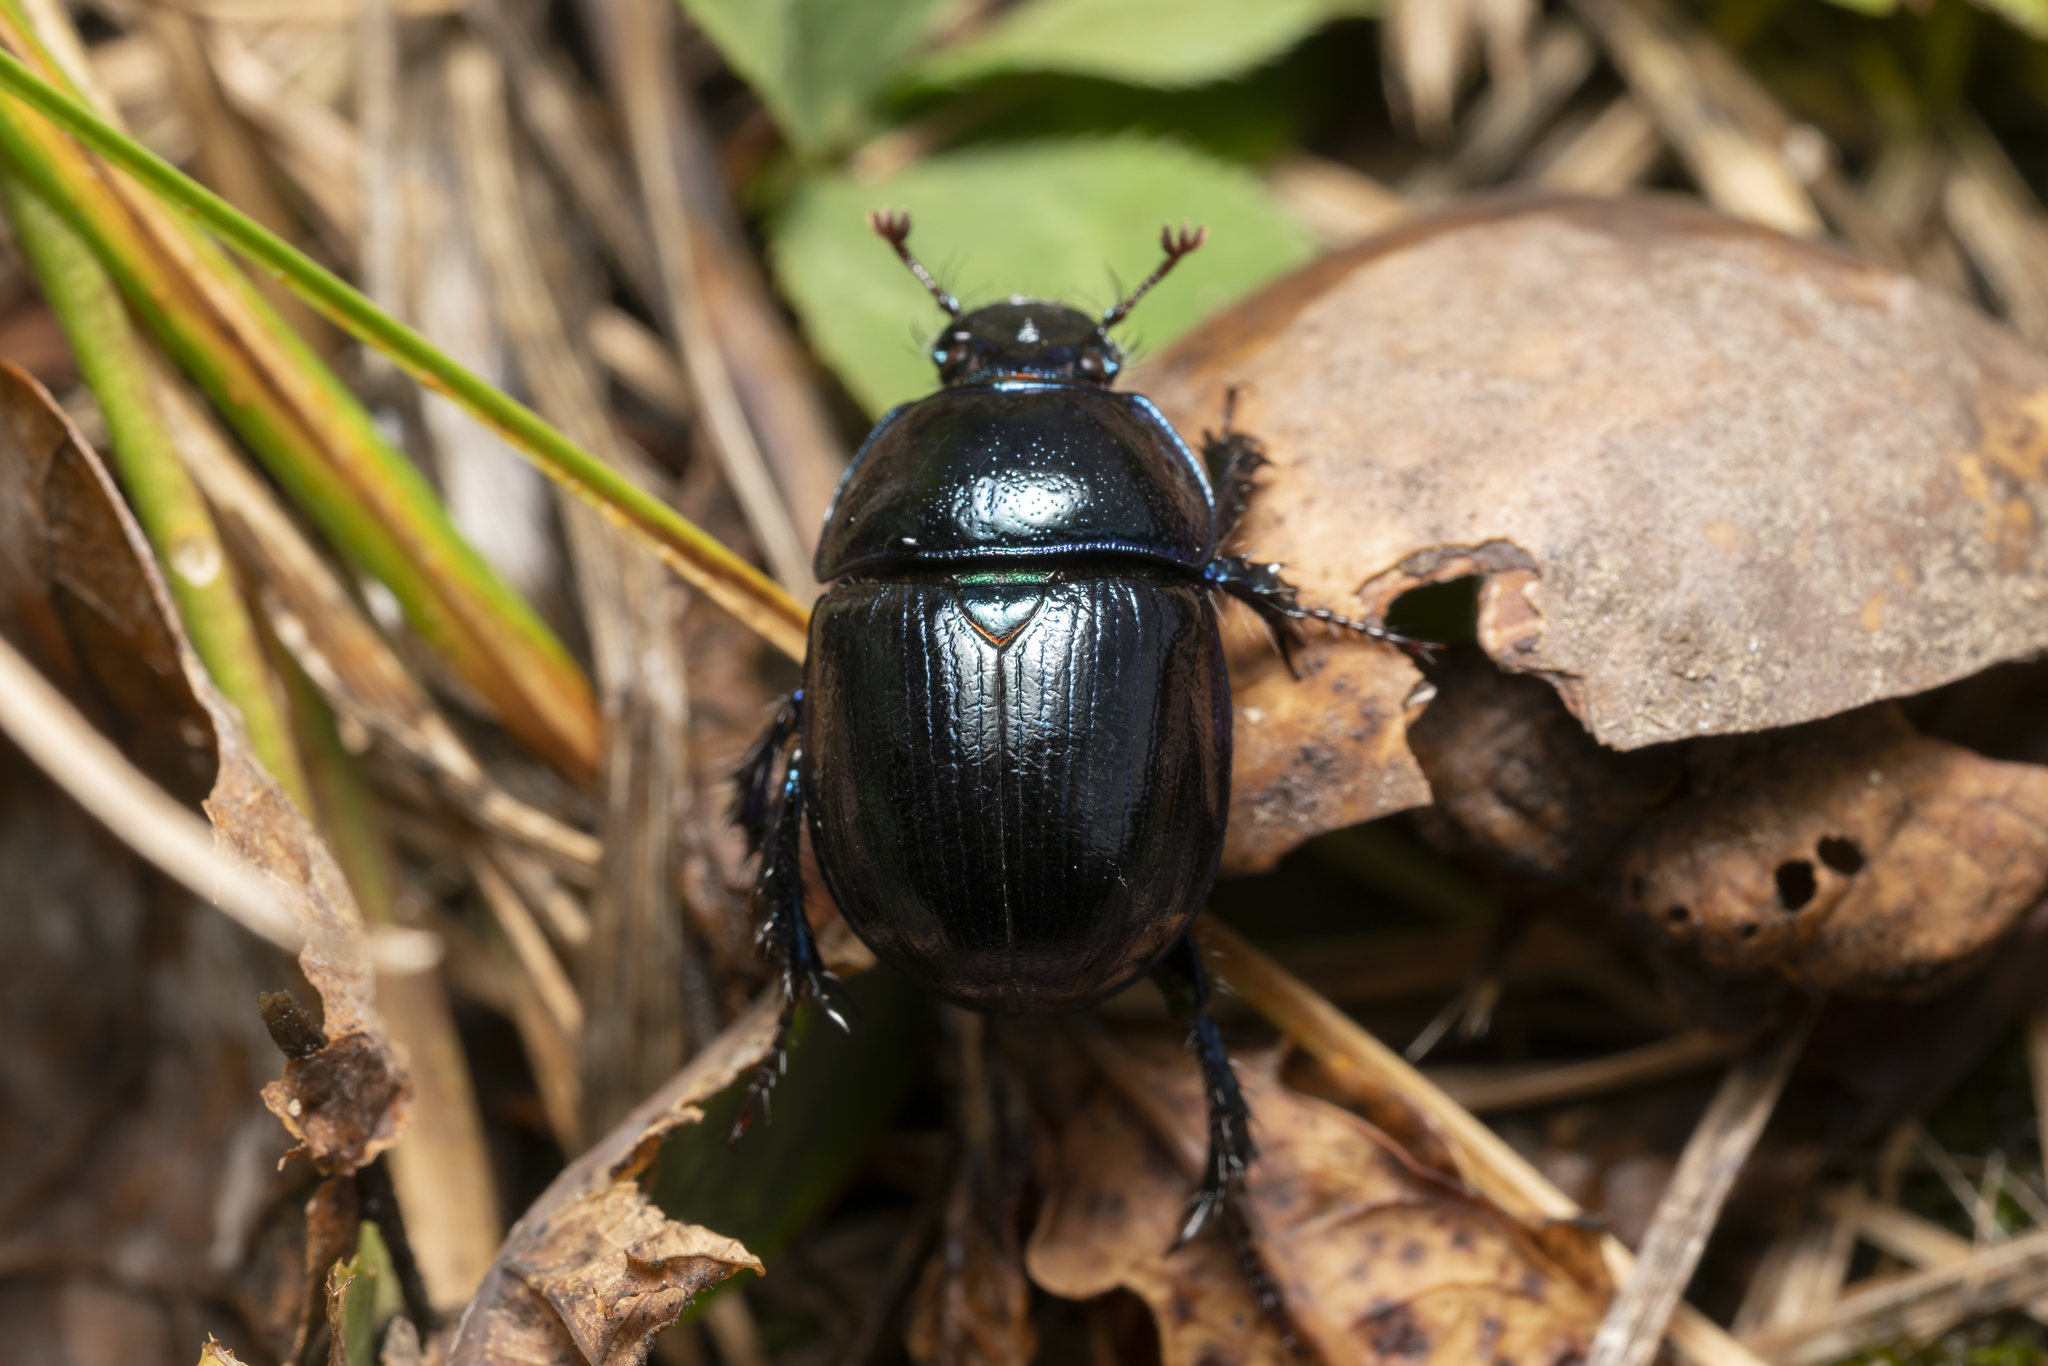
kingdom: Animalia
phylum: Arthropoda
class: Insecta
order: Coleoptera
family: Geotrupidae
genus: Anoplotrupes
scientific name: Anoplotrupes stercorosus
